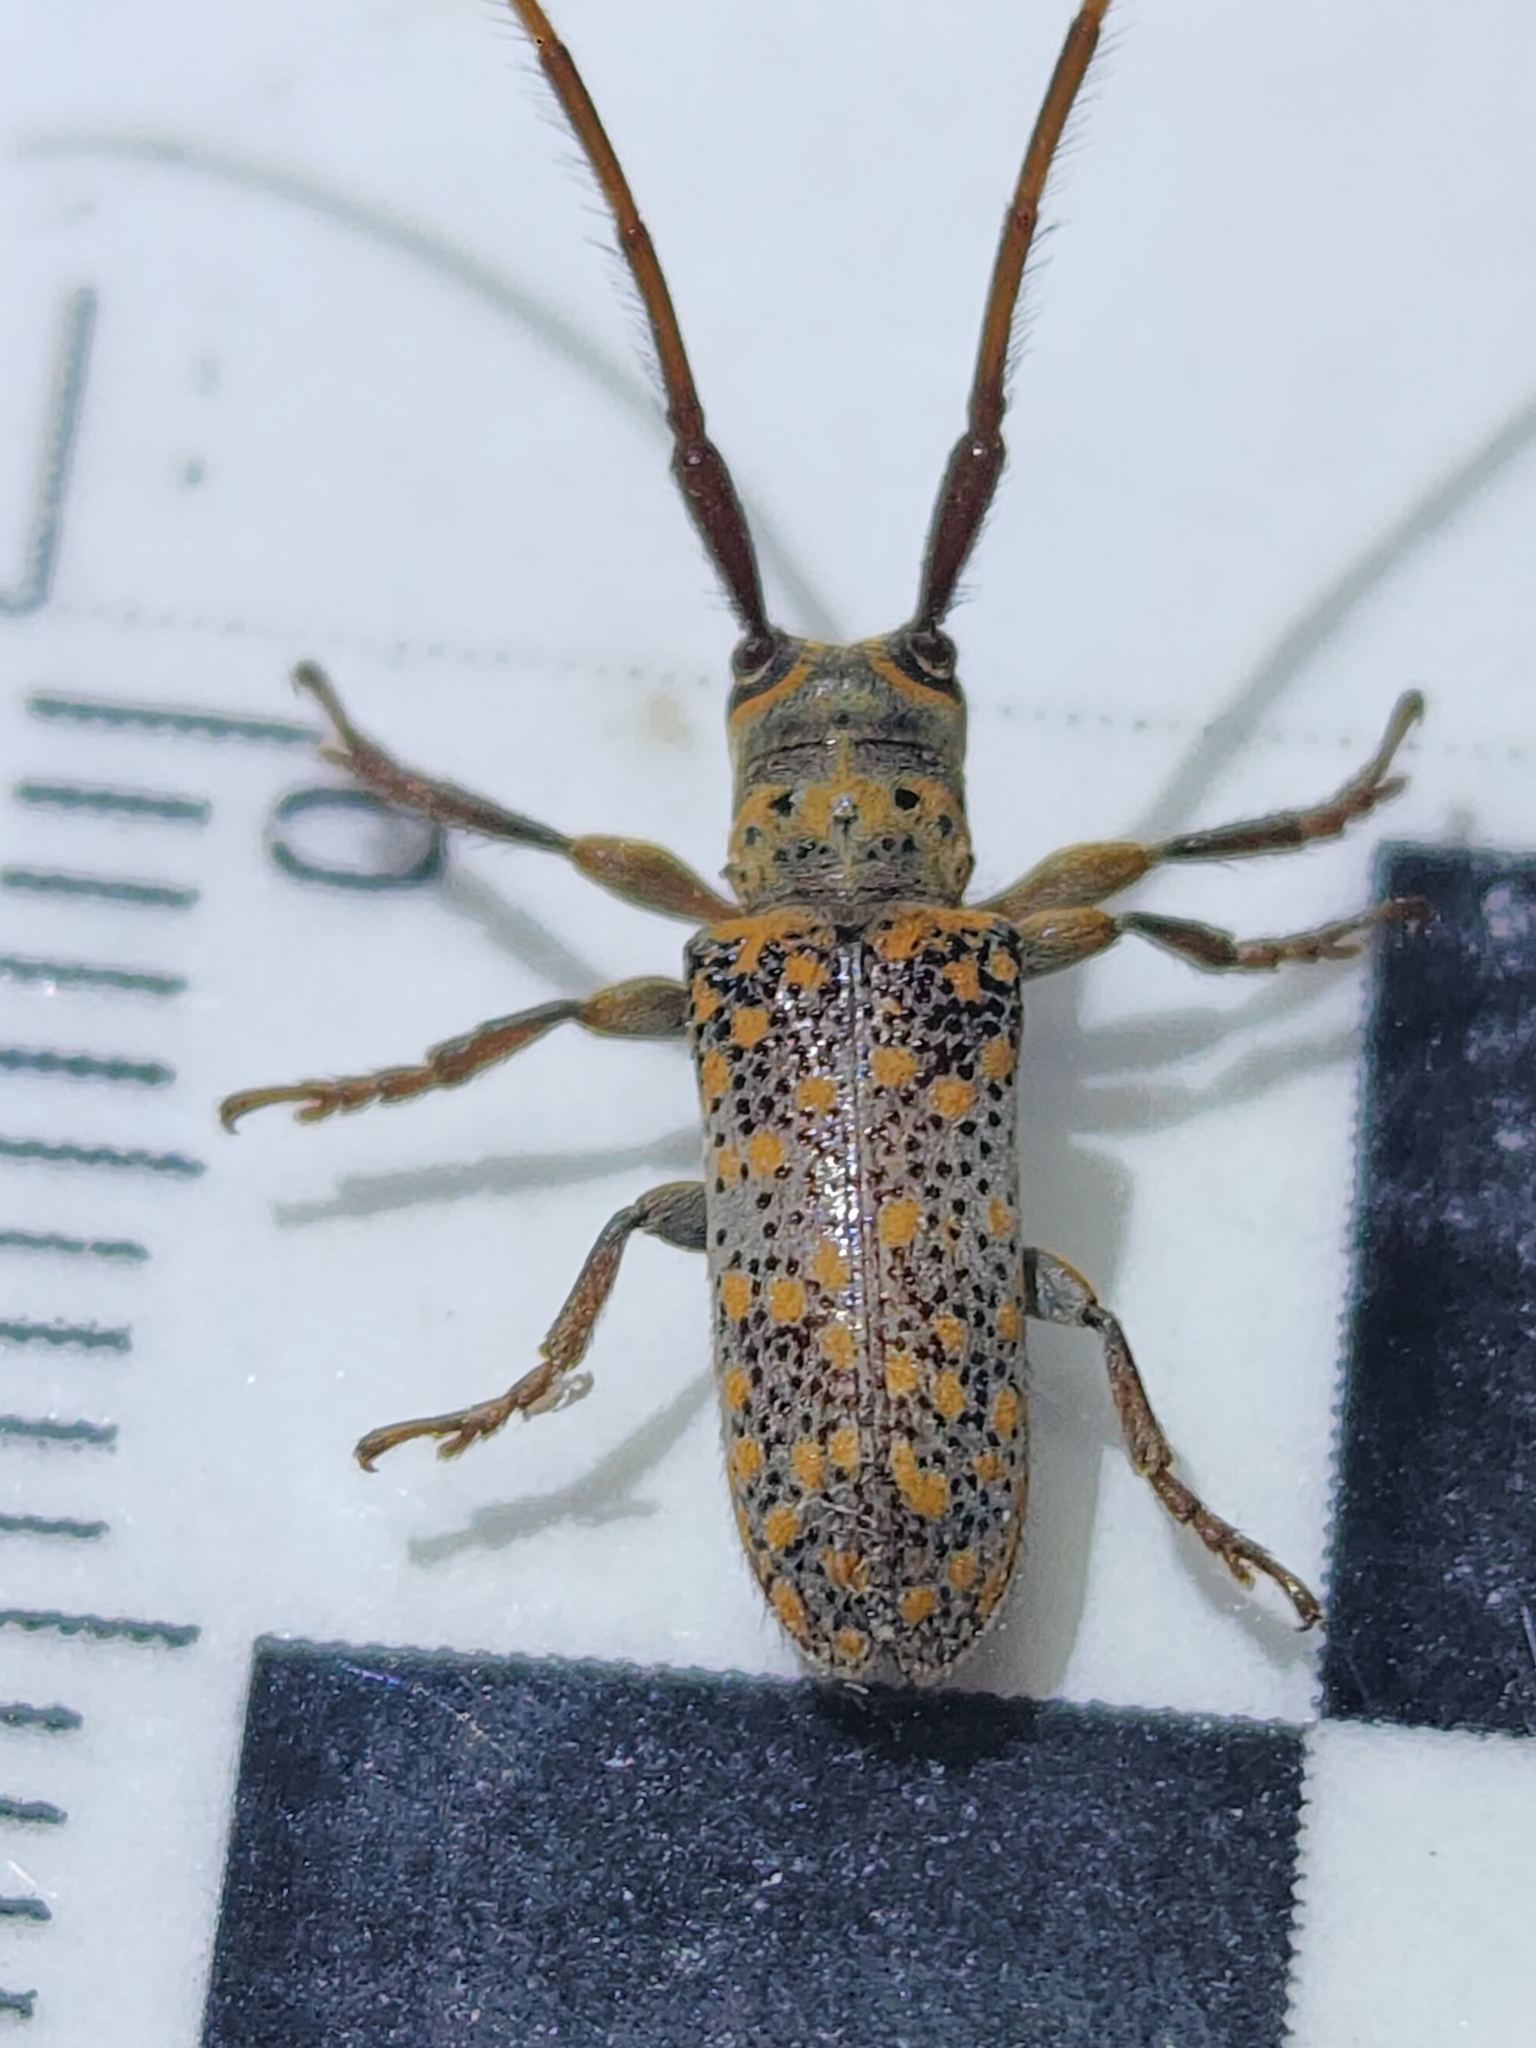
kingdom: Animalia
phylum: Arthropoda
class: Insecta
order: Coleoptera
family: Cerambycidae
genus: Oncideres
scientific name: Oncideres schreiteri
